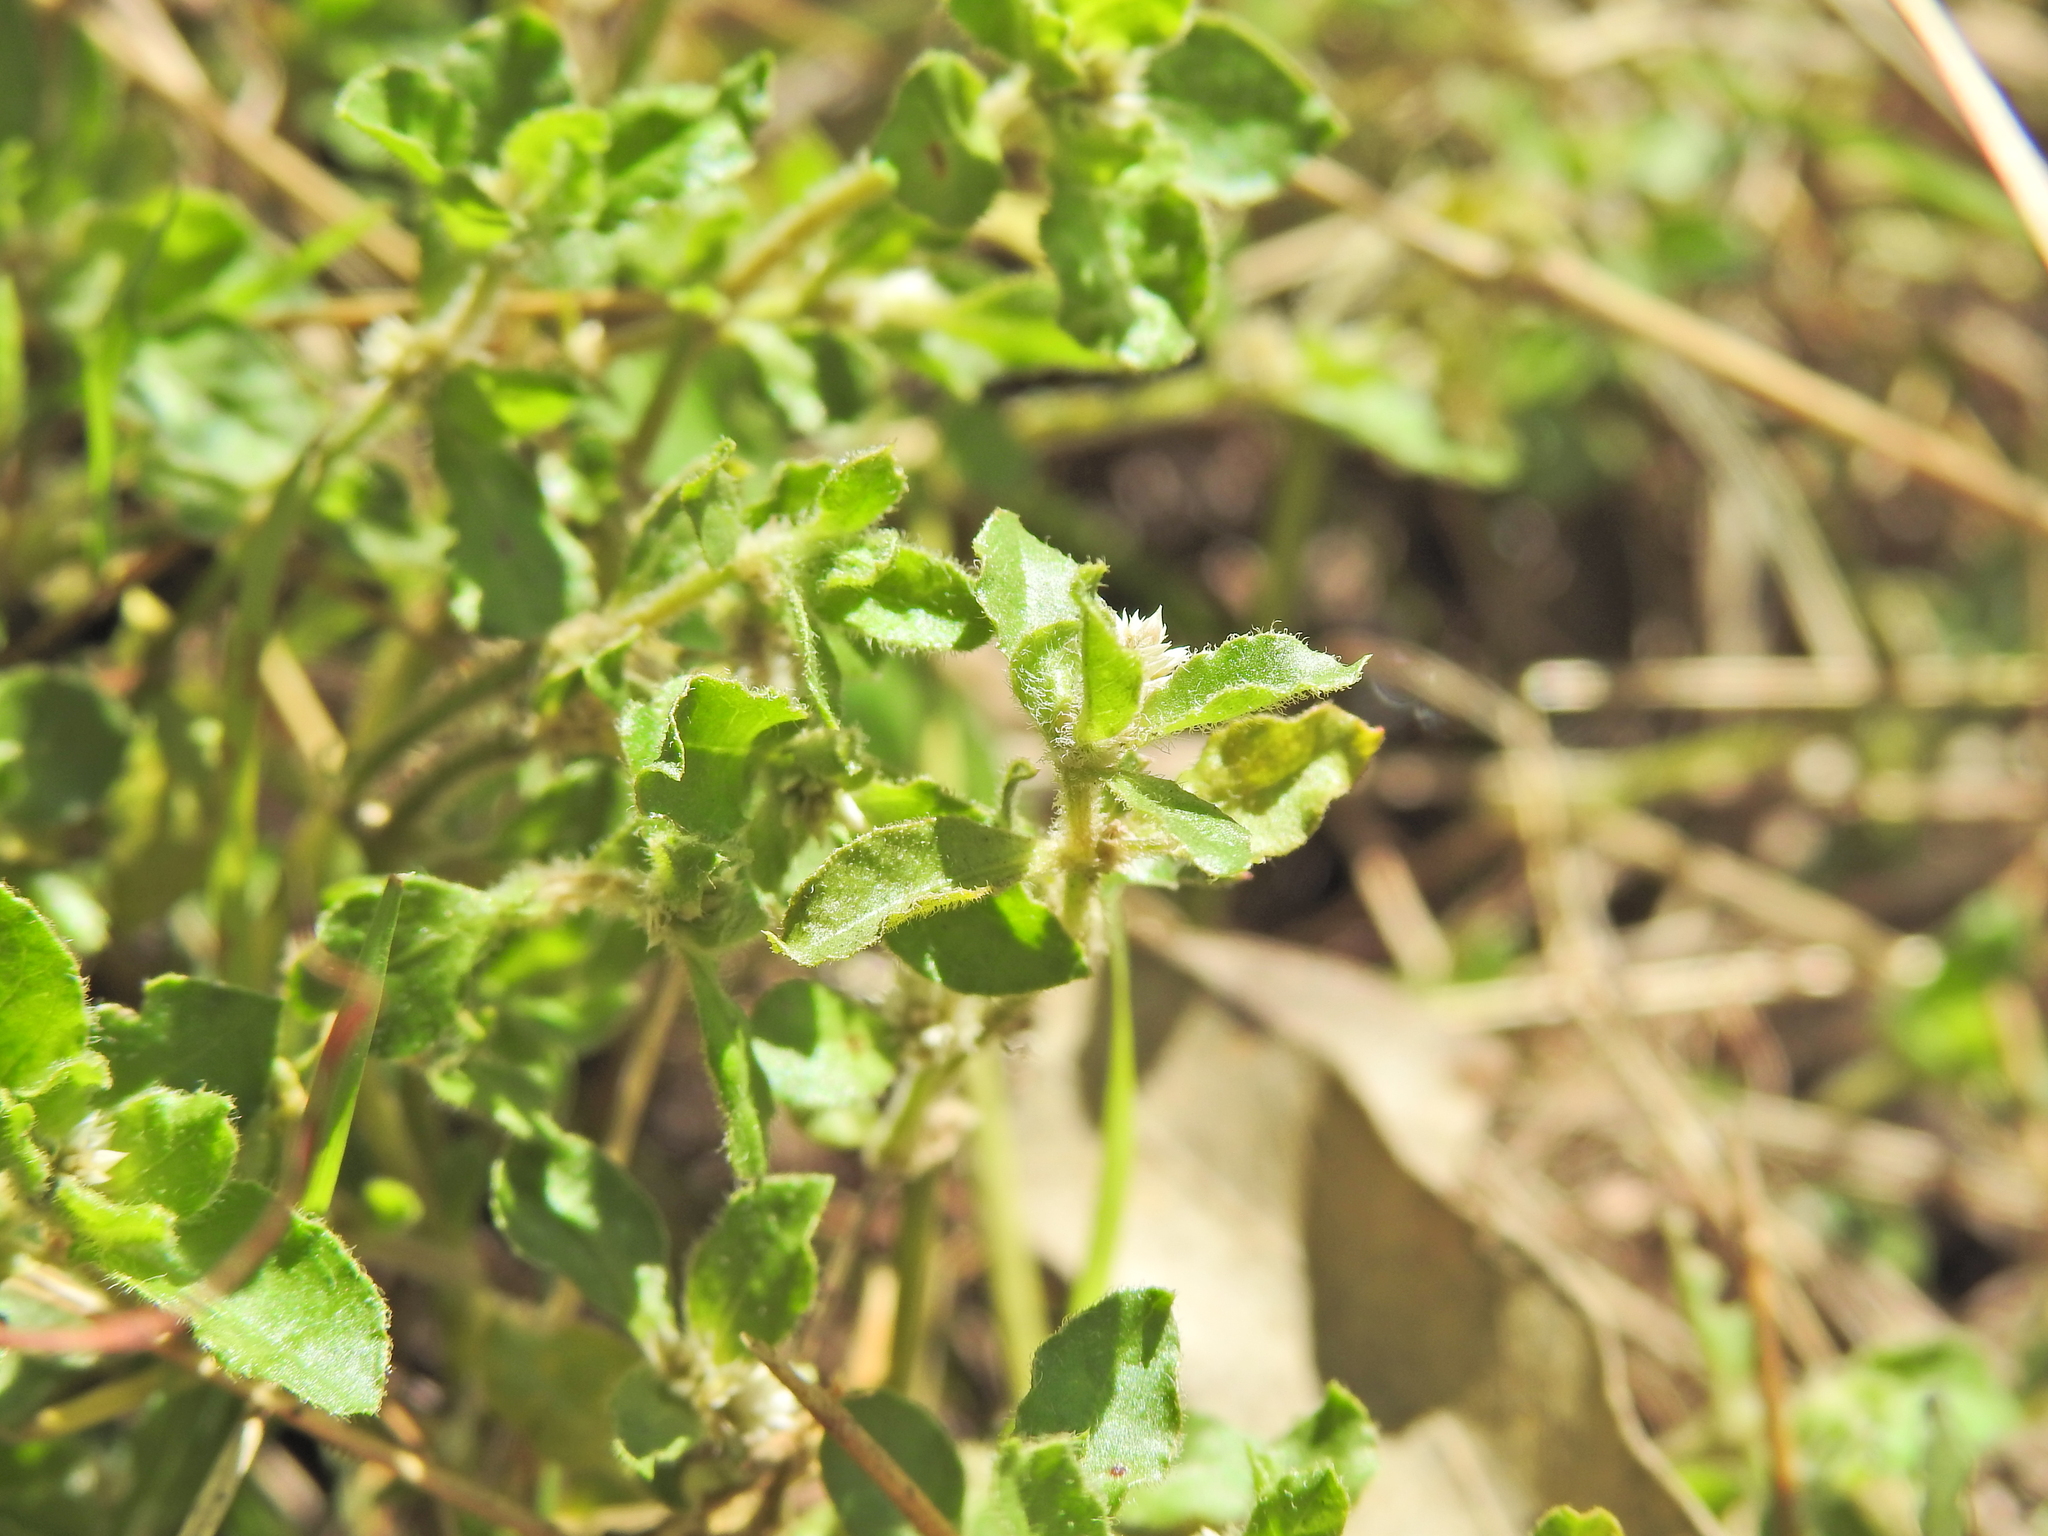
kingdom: Plantae
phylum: Tracheophyta
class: Magnoliopsida
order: Caryophyllales
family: Amaranthaceae
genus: Alternanthera
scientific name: Alternanthera nana
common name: Hairy joyweed
